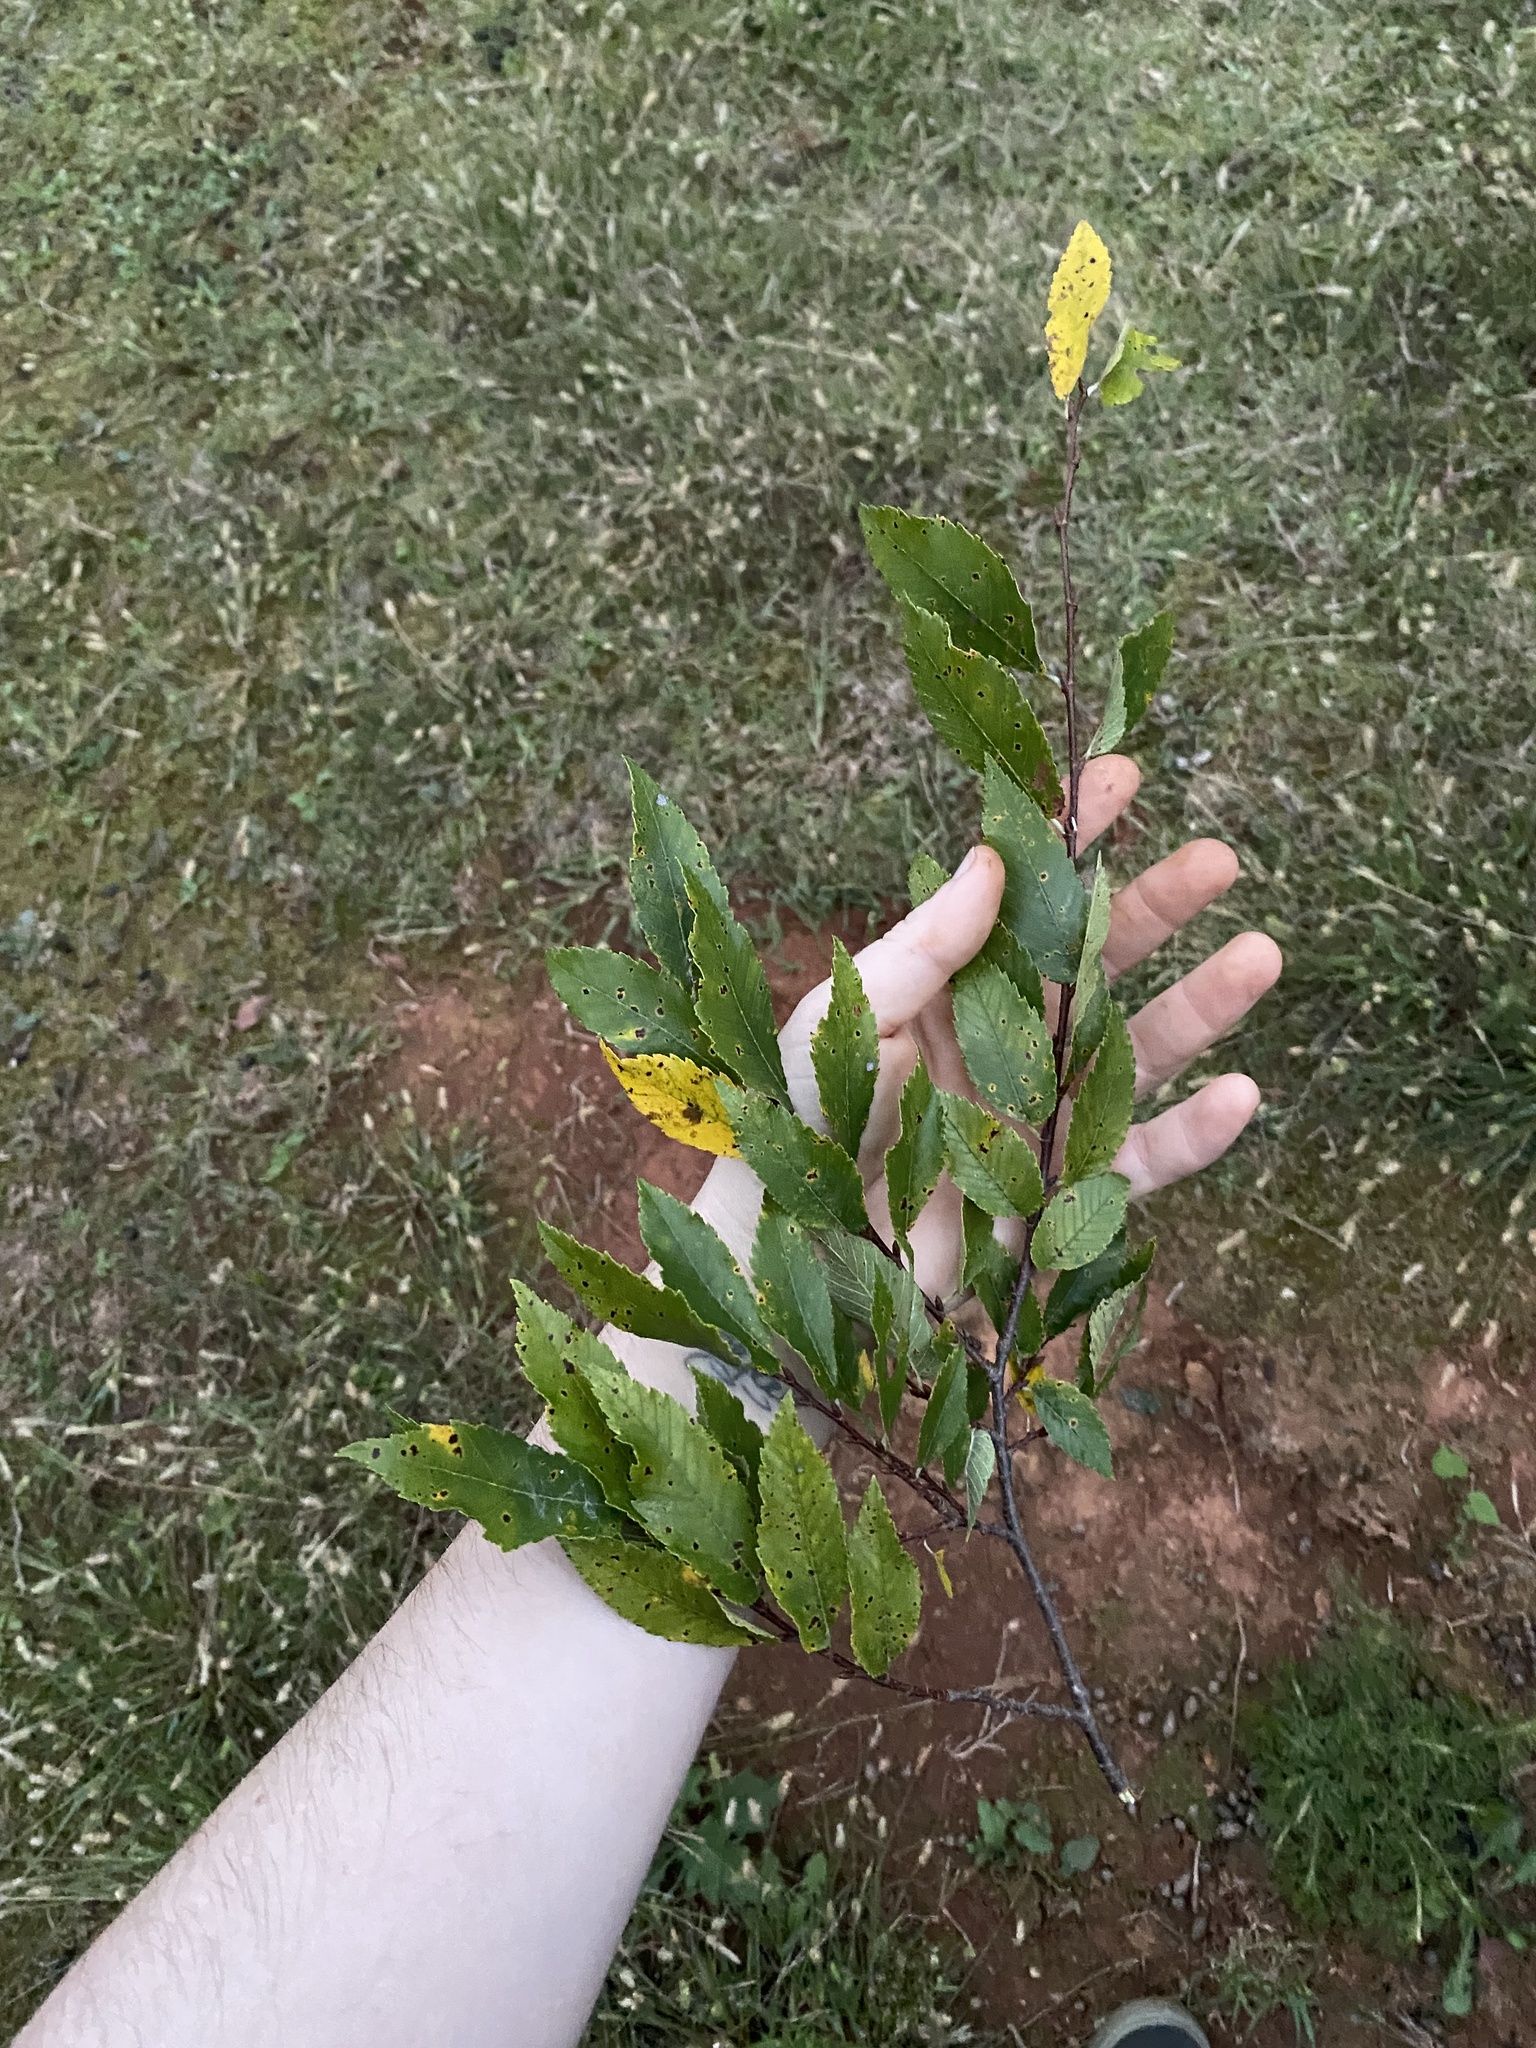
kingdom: Plantae
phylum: Tracheophyta
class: Magnoliopsida
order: Rosales
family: Ulmaceae
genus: Ulmus
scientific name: Ulmus alata
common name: Winged elm
